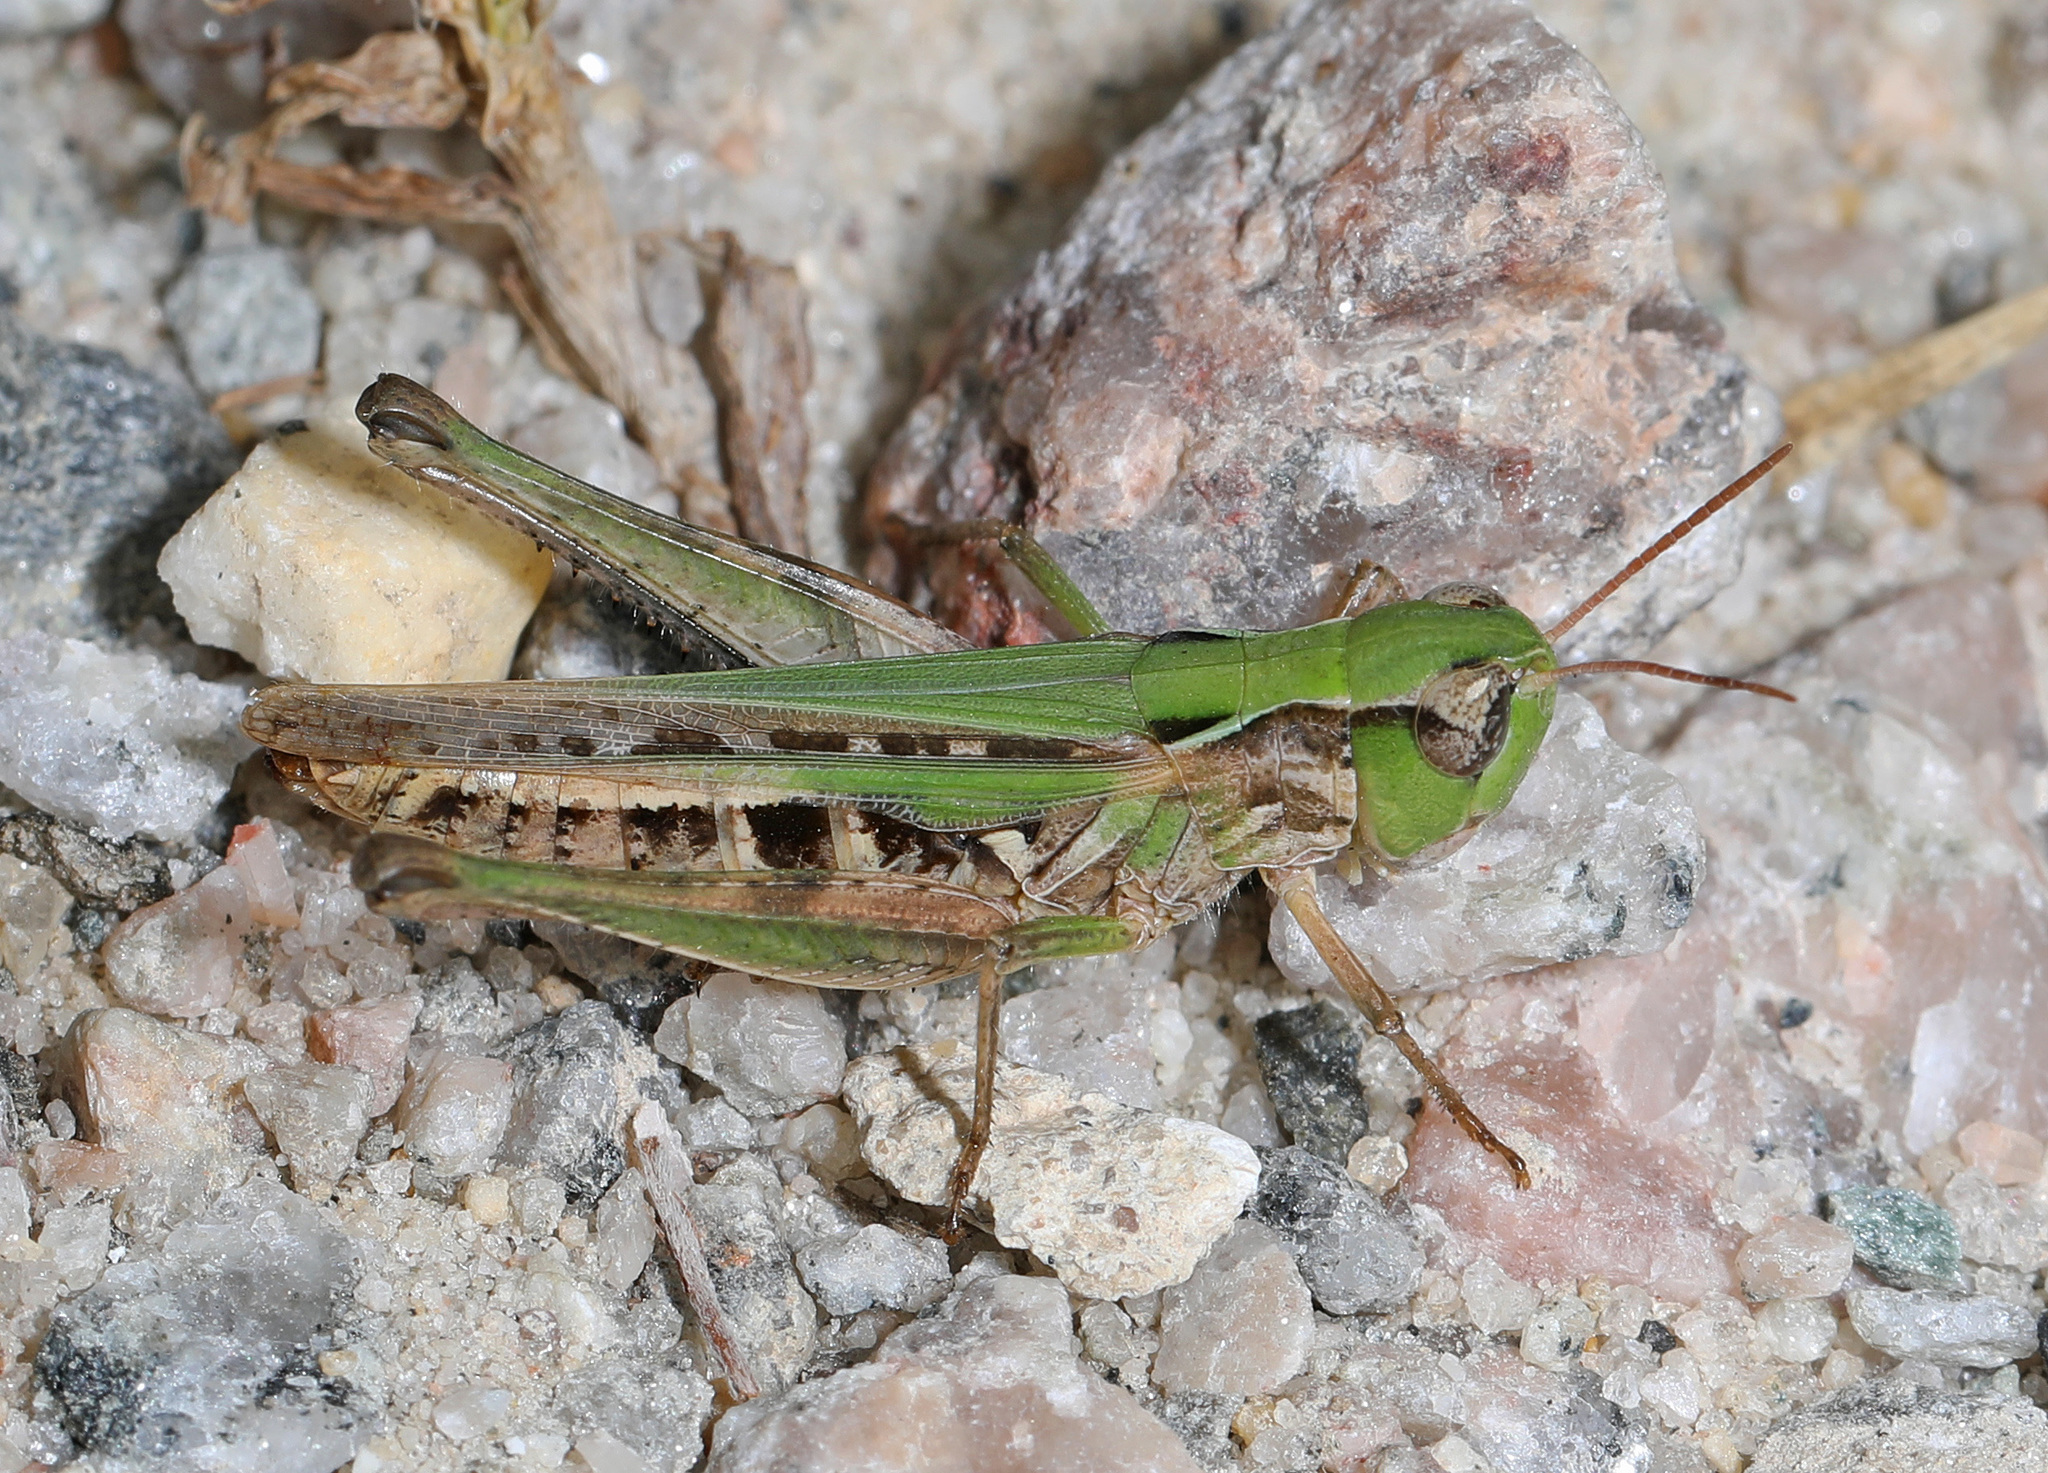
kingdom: Animalia
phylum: Arthropoda
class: Insecta
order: Orthoptera
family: Acrididae
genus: Orphulella
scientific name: Orphulella speciosa
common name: Pasture grasshopper
